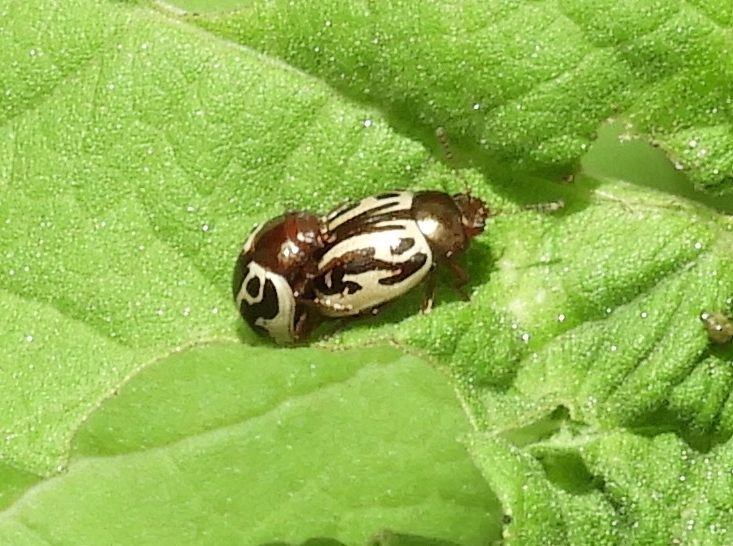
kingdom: Animalia
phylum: Arthropoda
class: Insecta
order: Coleoptera
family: Chrysomelidae
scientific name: Chrysomelidae
